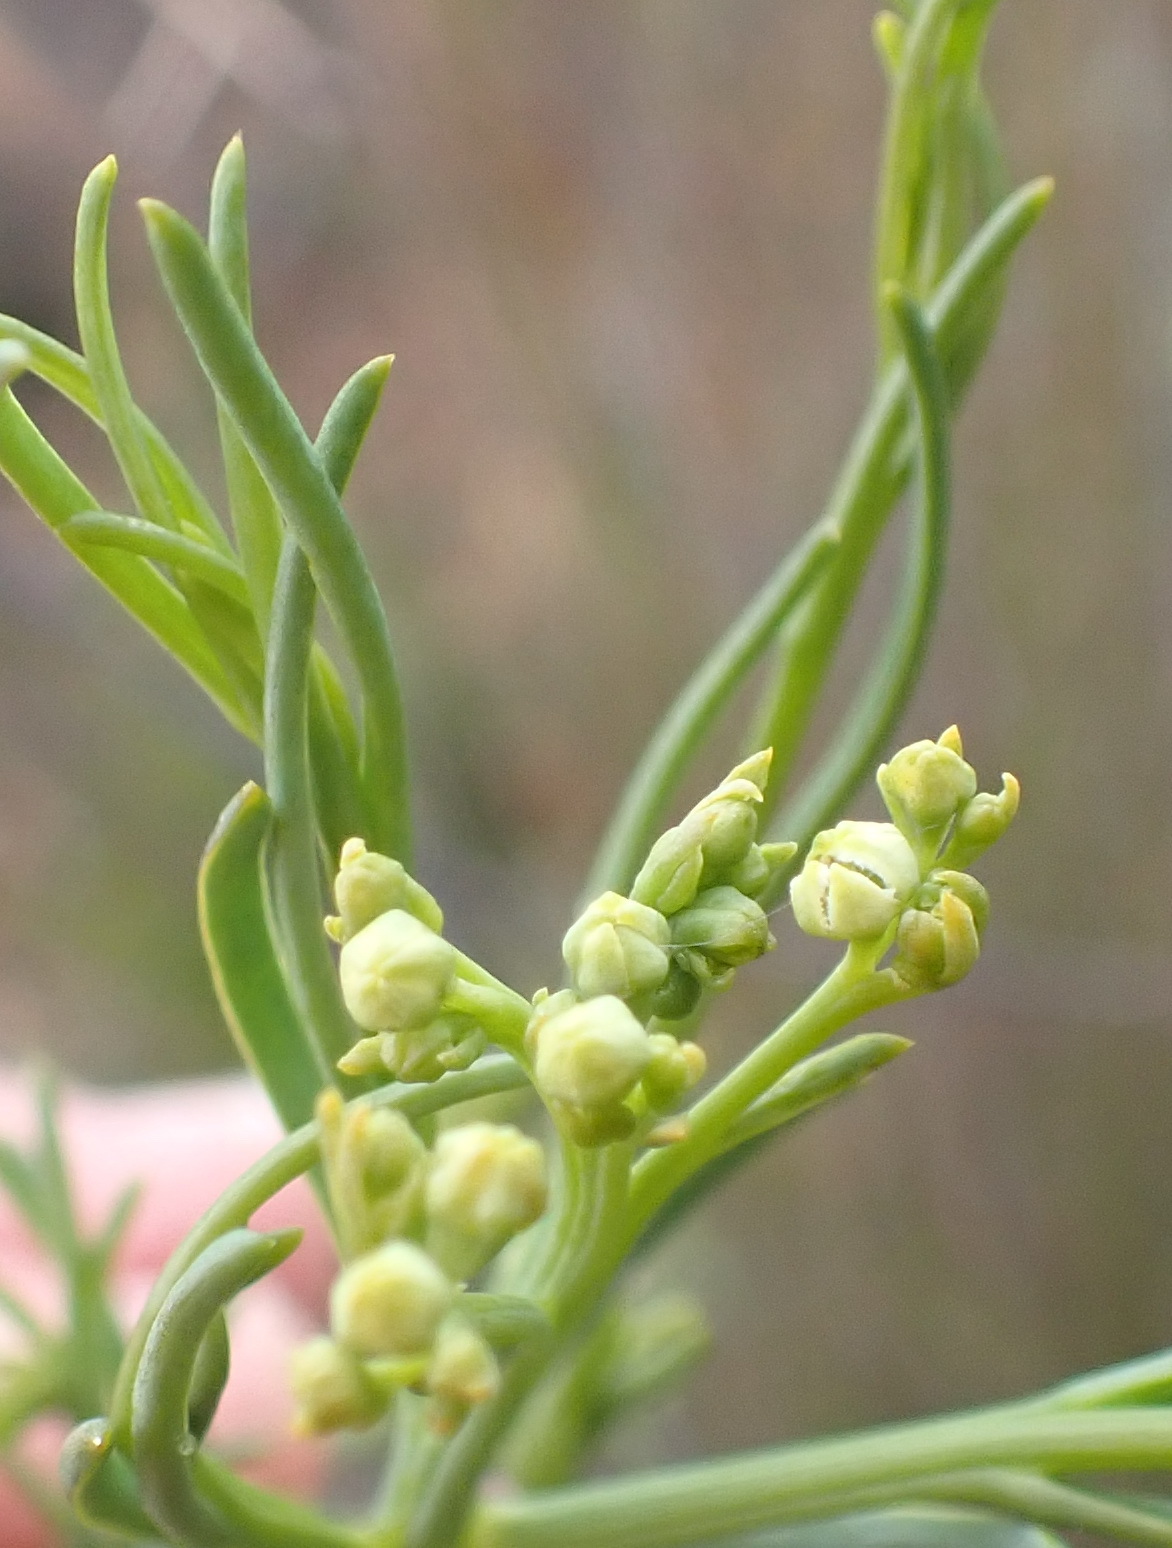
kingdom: Plantae
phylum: Tracheophyta
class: Magnoliopsida
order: Santalales
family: Thesiaceae
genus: Thesium
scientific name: Thesium strictum
